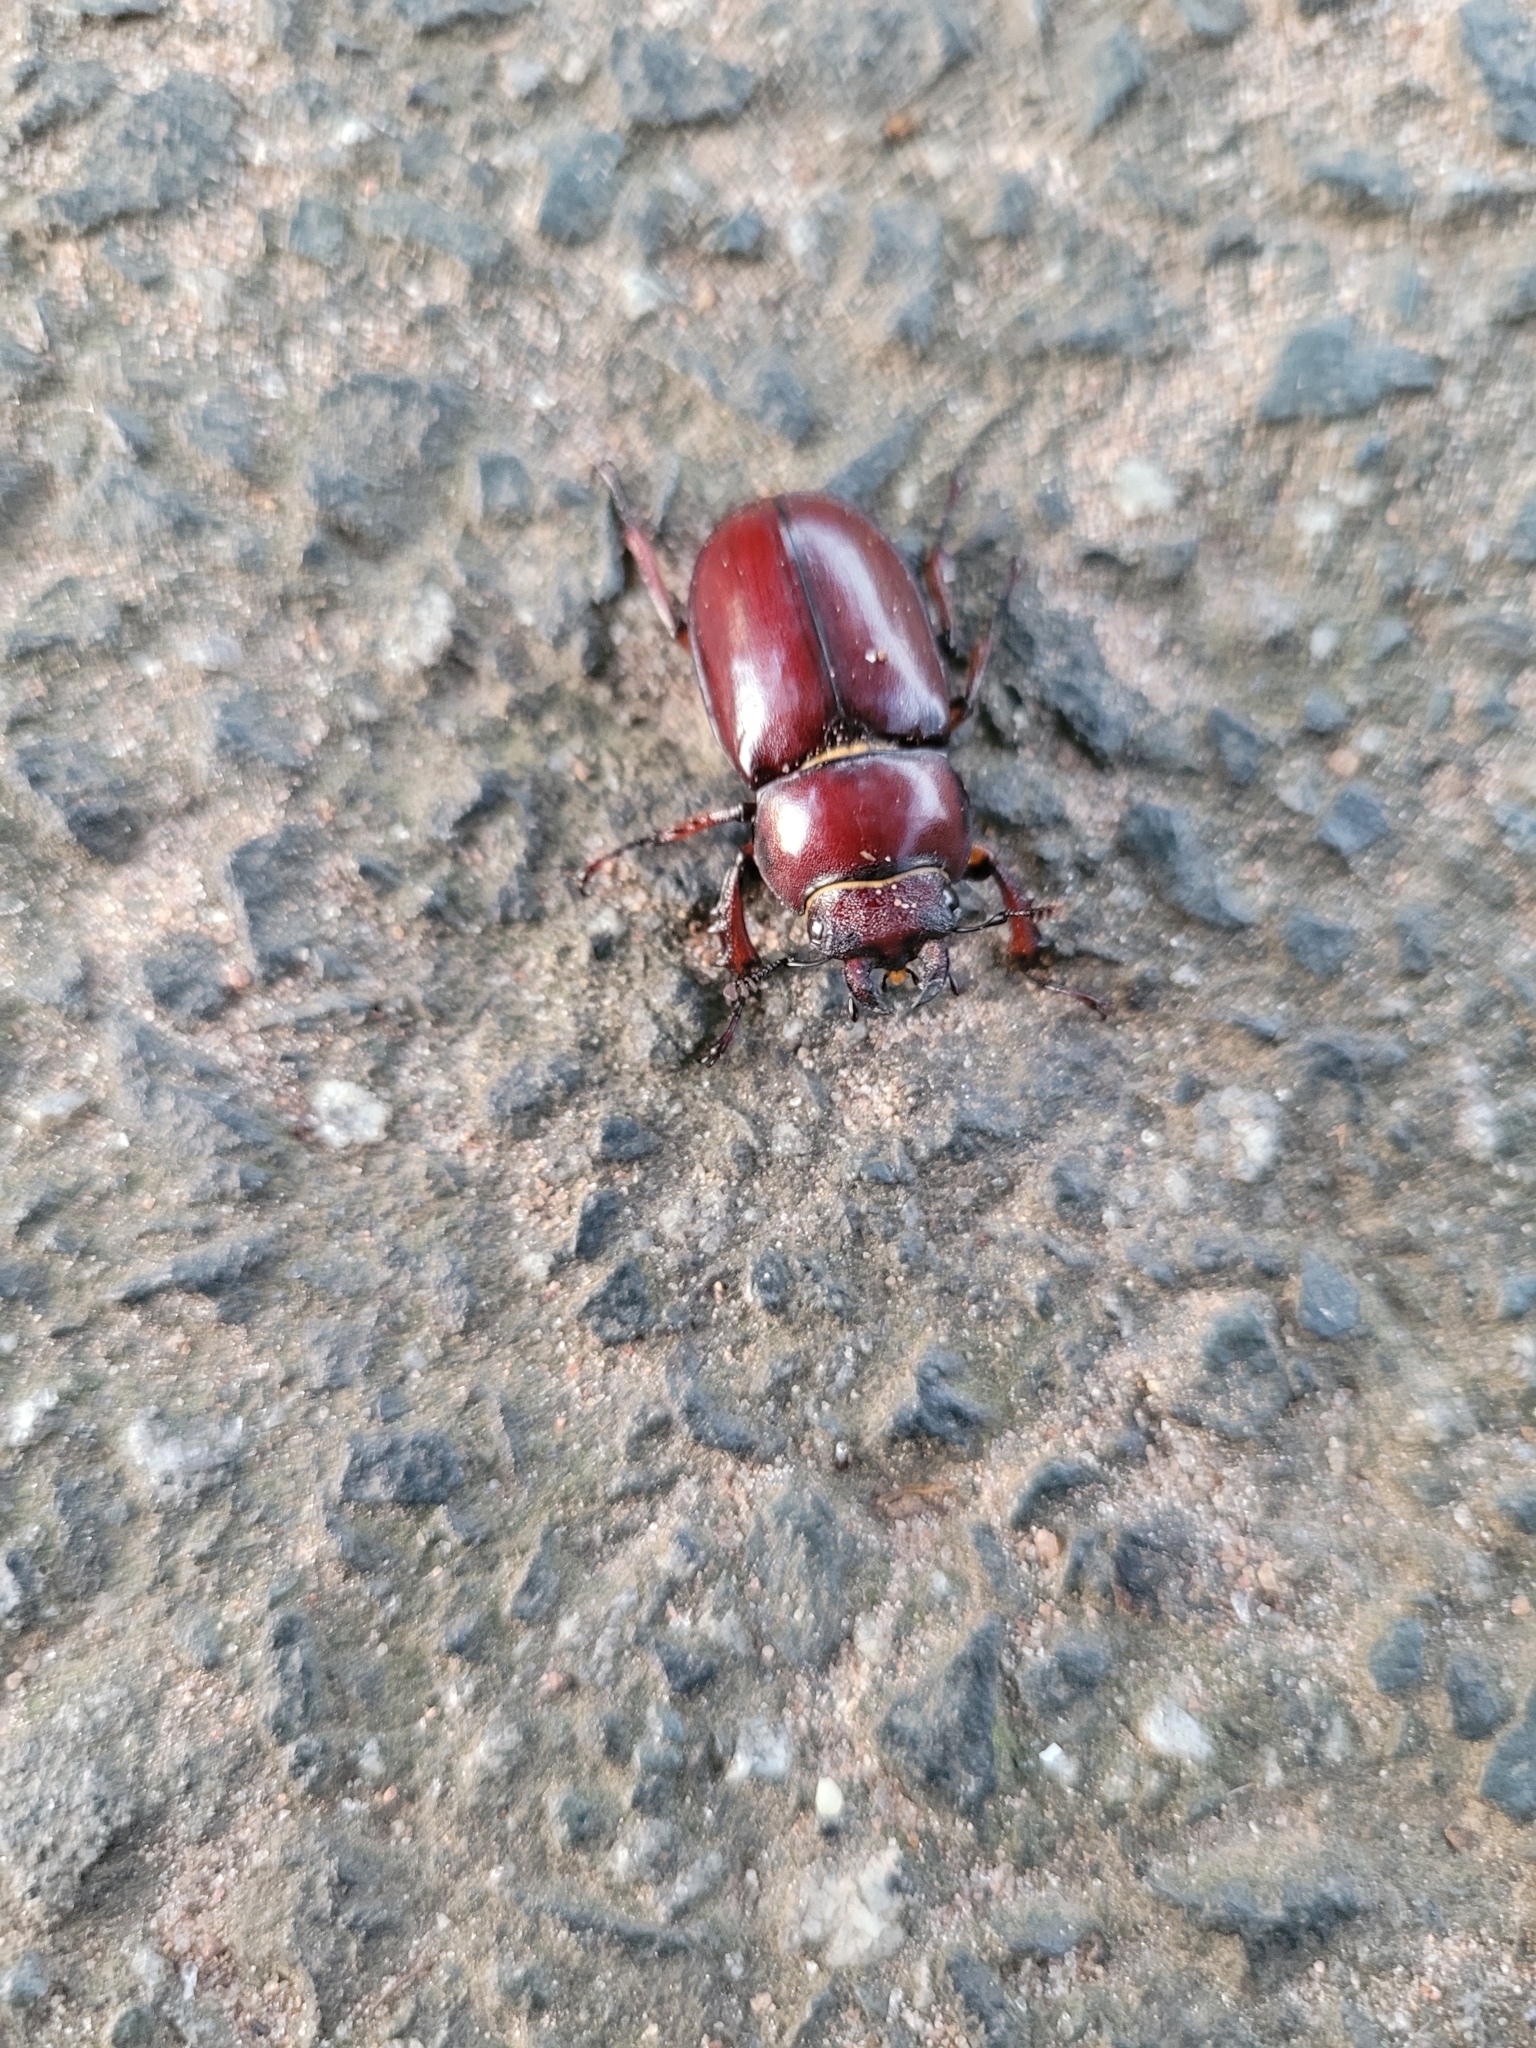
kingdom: Animalia
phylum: Arthropoda
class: Insecta
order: Coleoptera
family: Lucanidae
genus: Lucanus
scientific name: Lucanus capreolus
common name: Stag beetle
